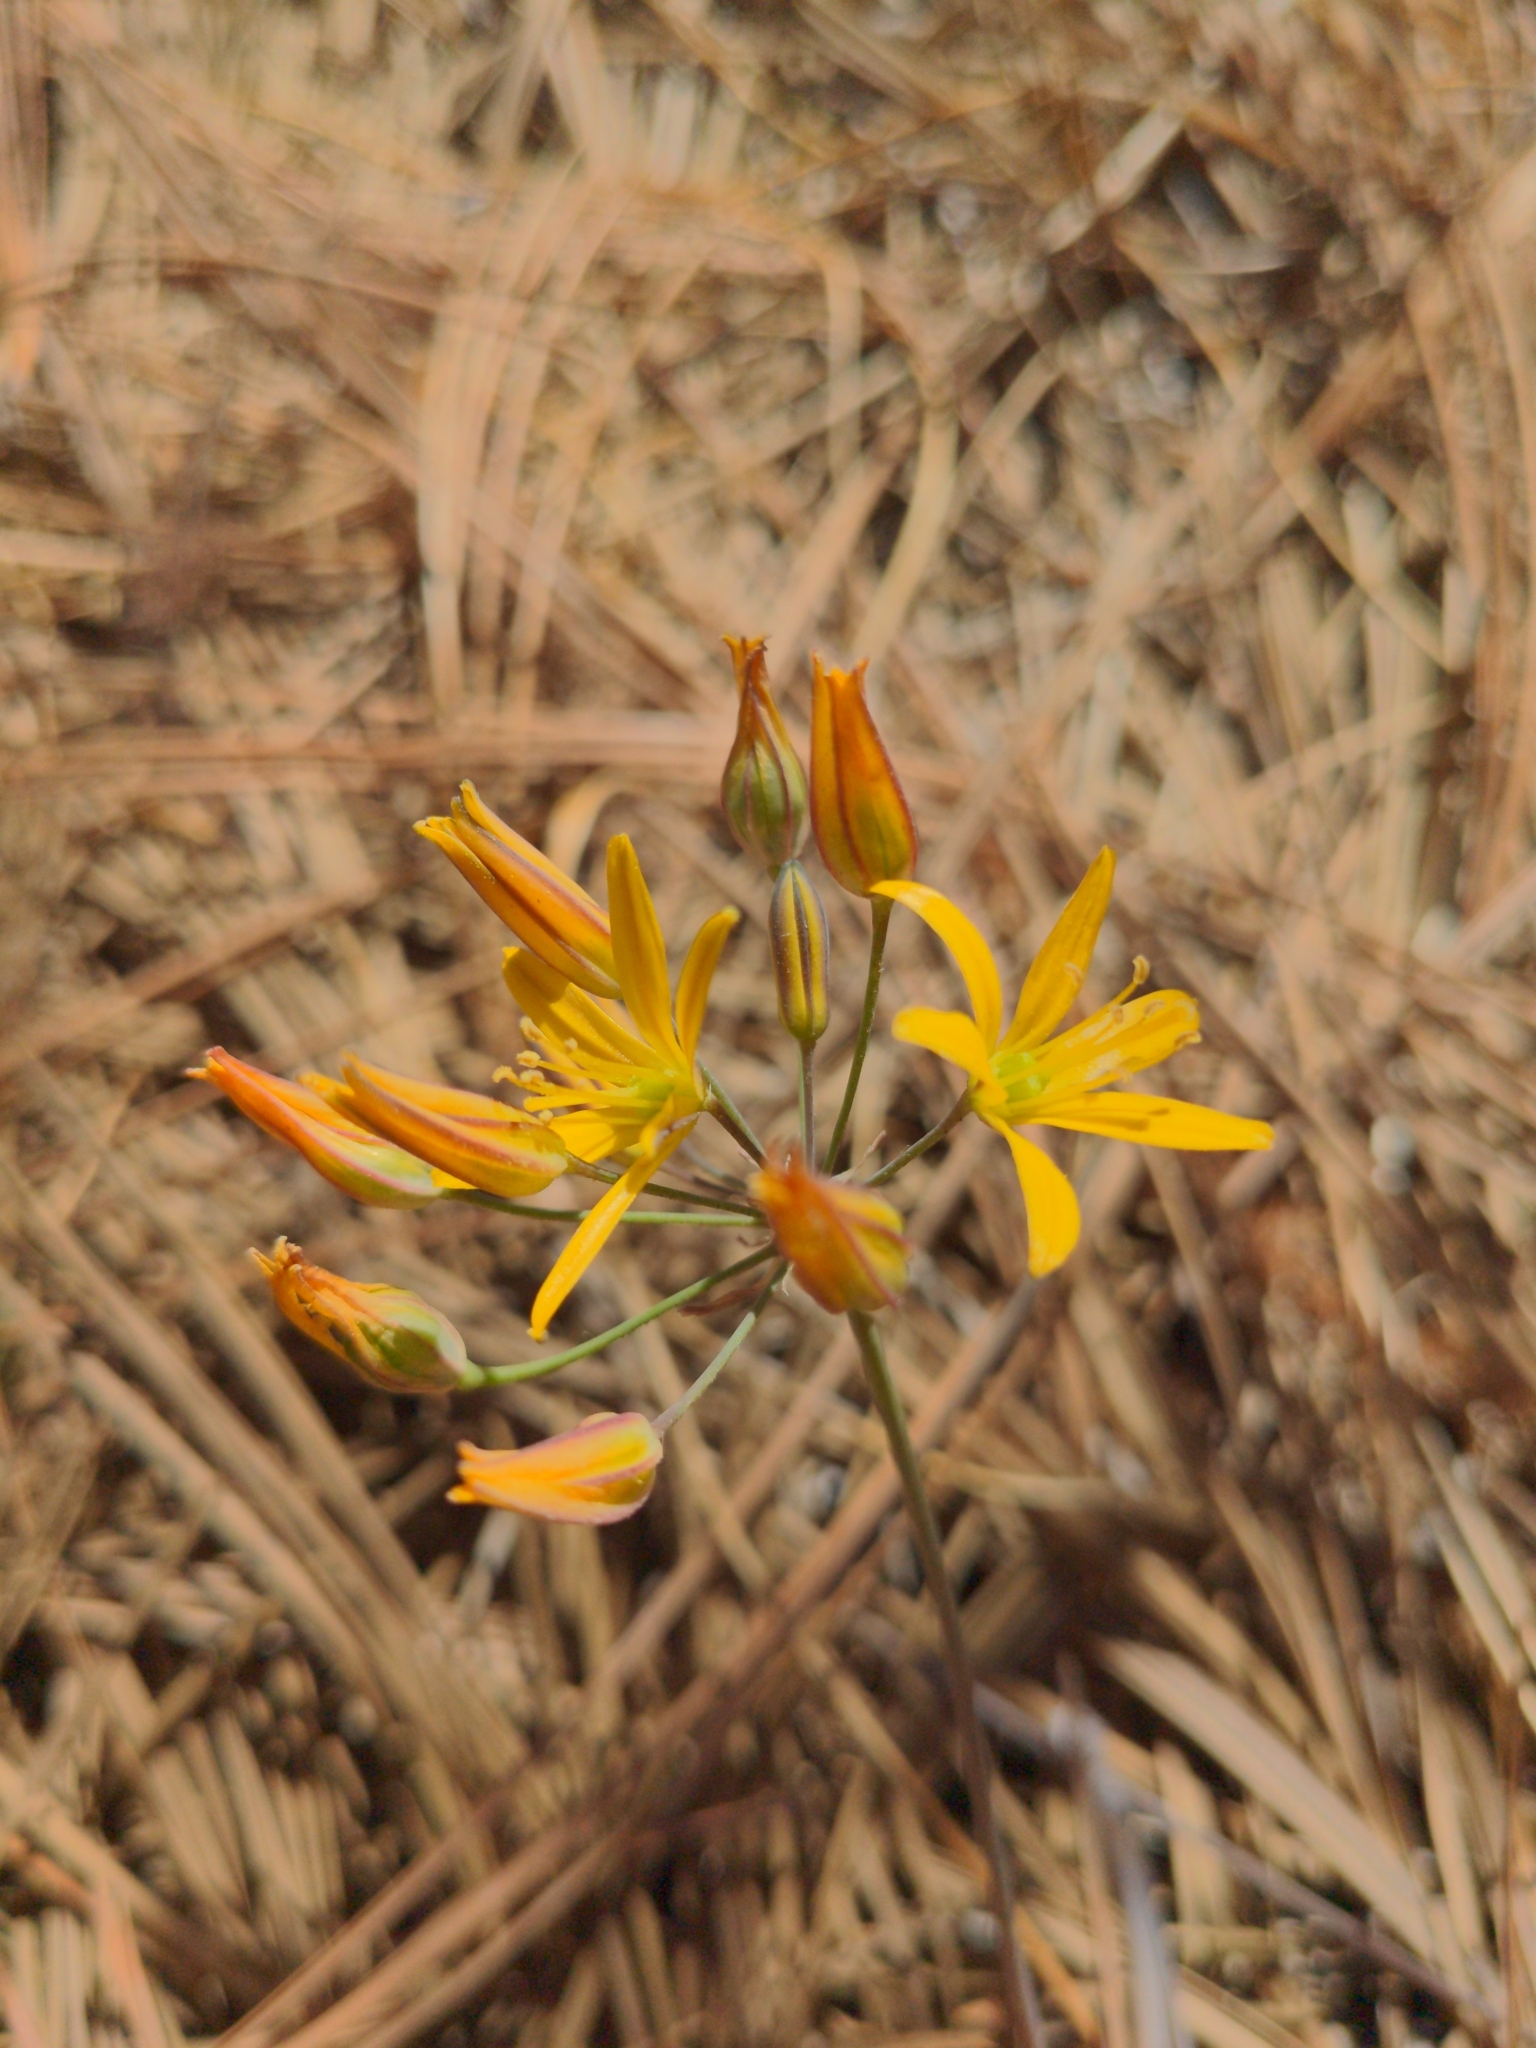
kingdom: Plantae
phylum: Tracheophyta
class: Liliopsida
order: Asparagales
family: Asparagaceae
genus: Bloomeria
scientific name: Bloomeria crocea
